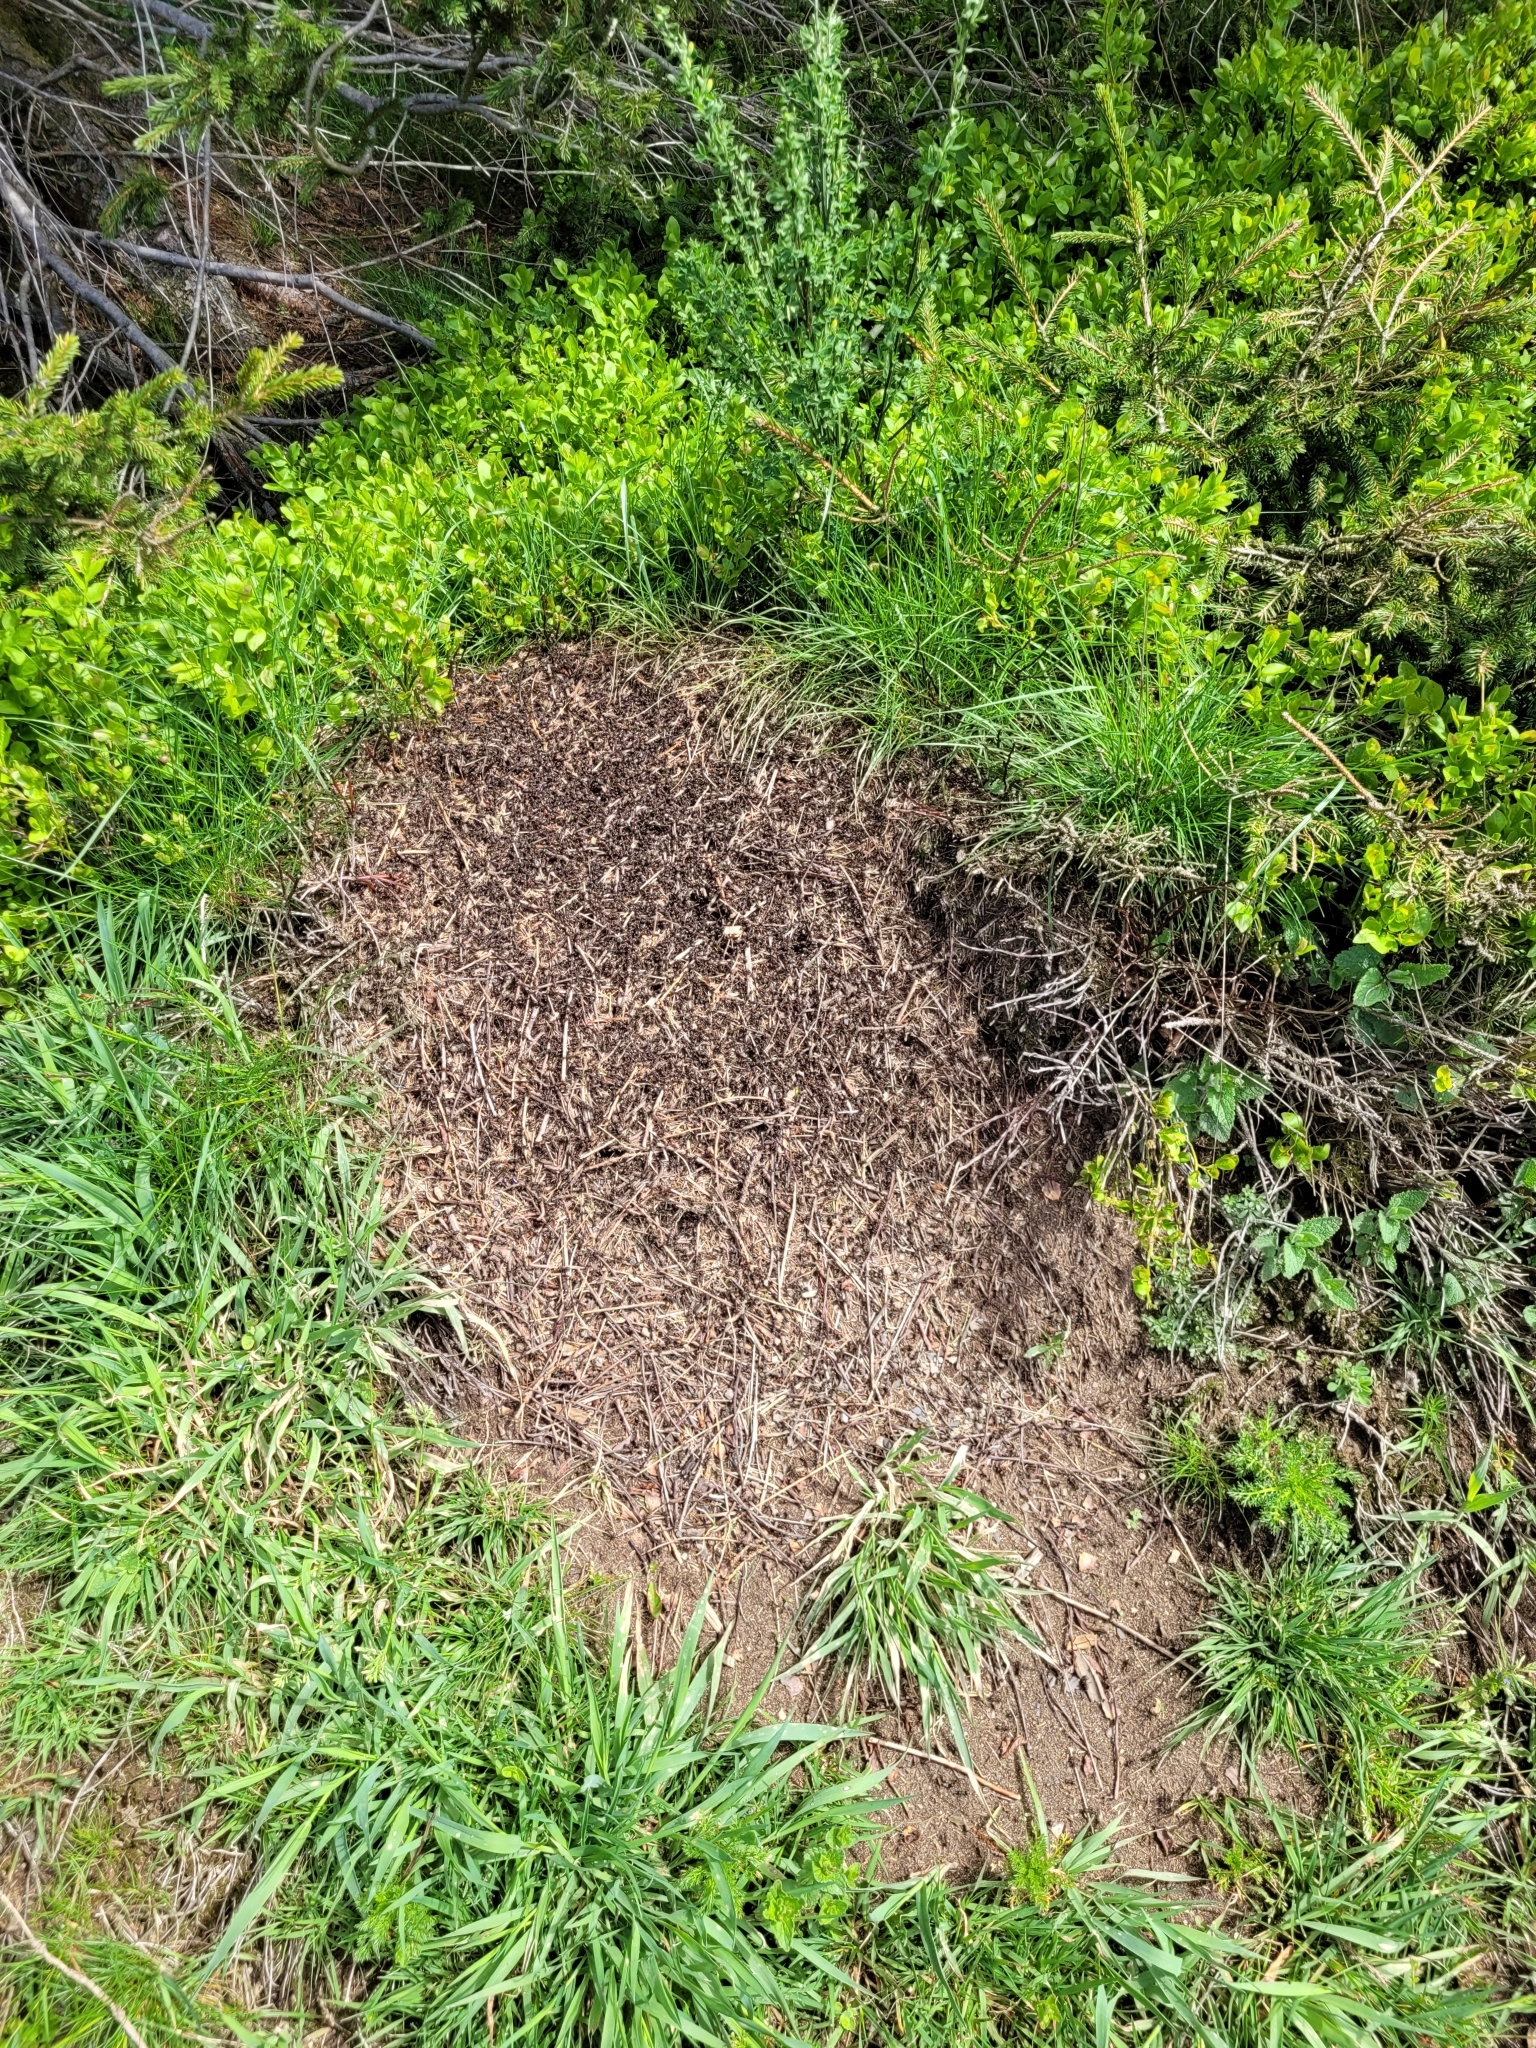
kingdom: Animalia
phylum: Arthropoda
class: Insecta
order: Hymenoptera
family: Formicidae
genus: Formica
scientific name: Formica
